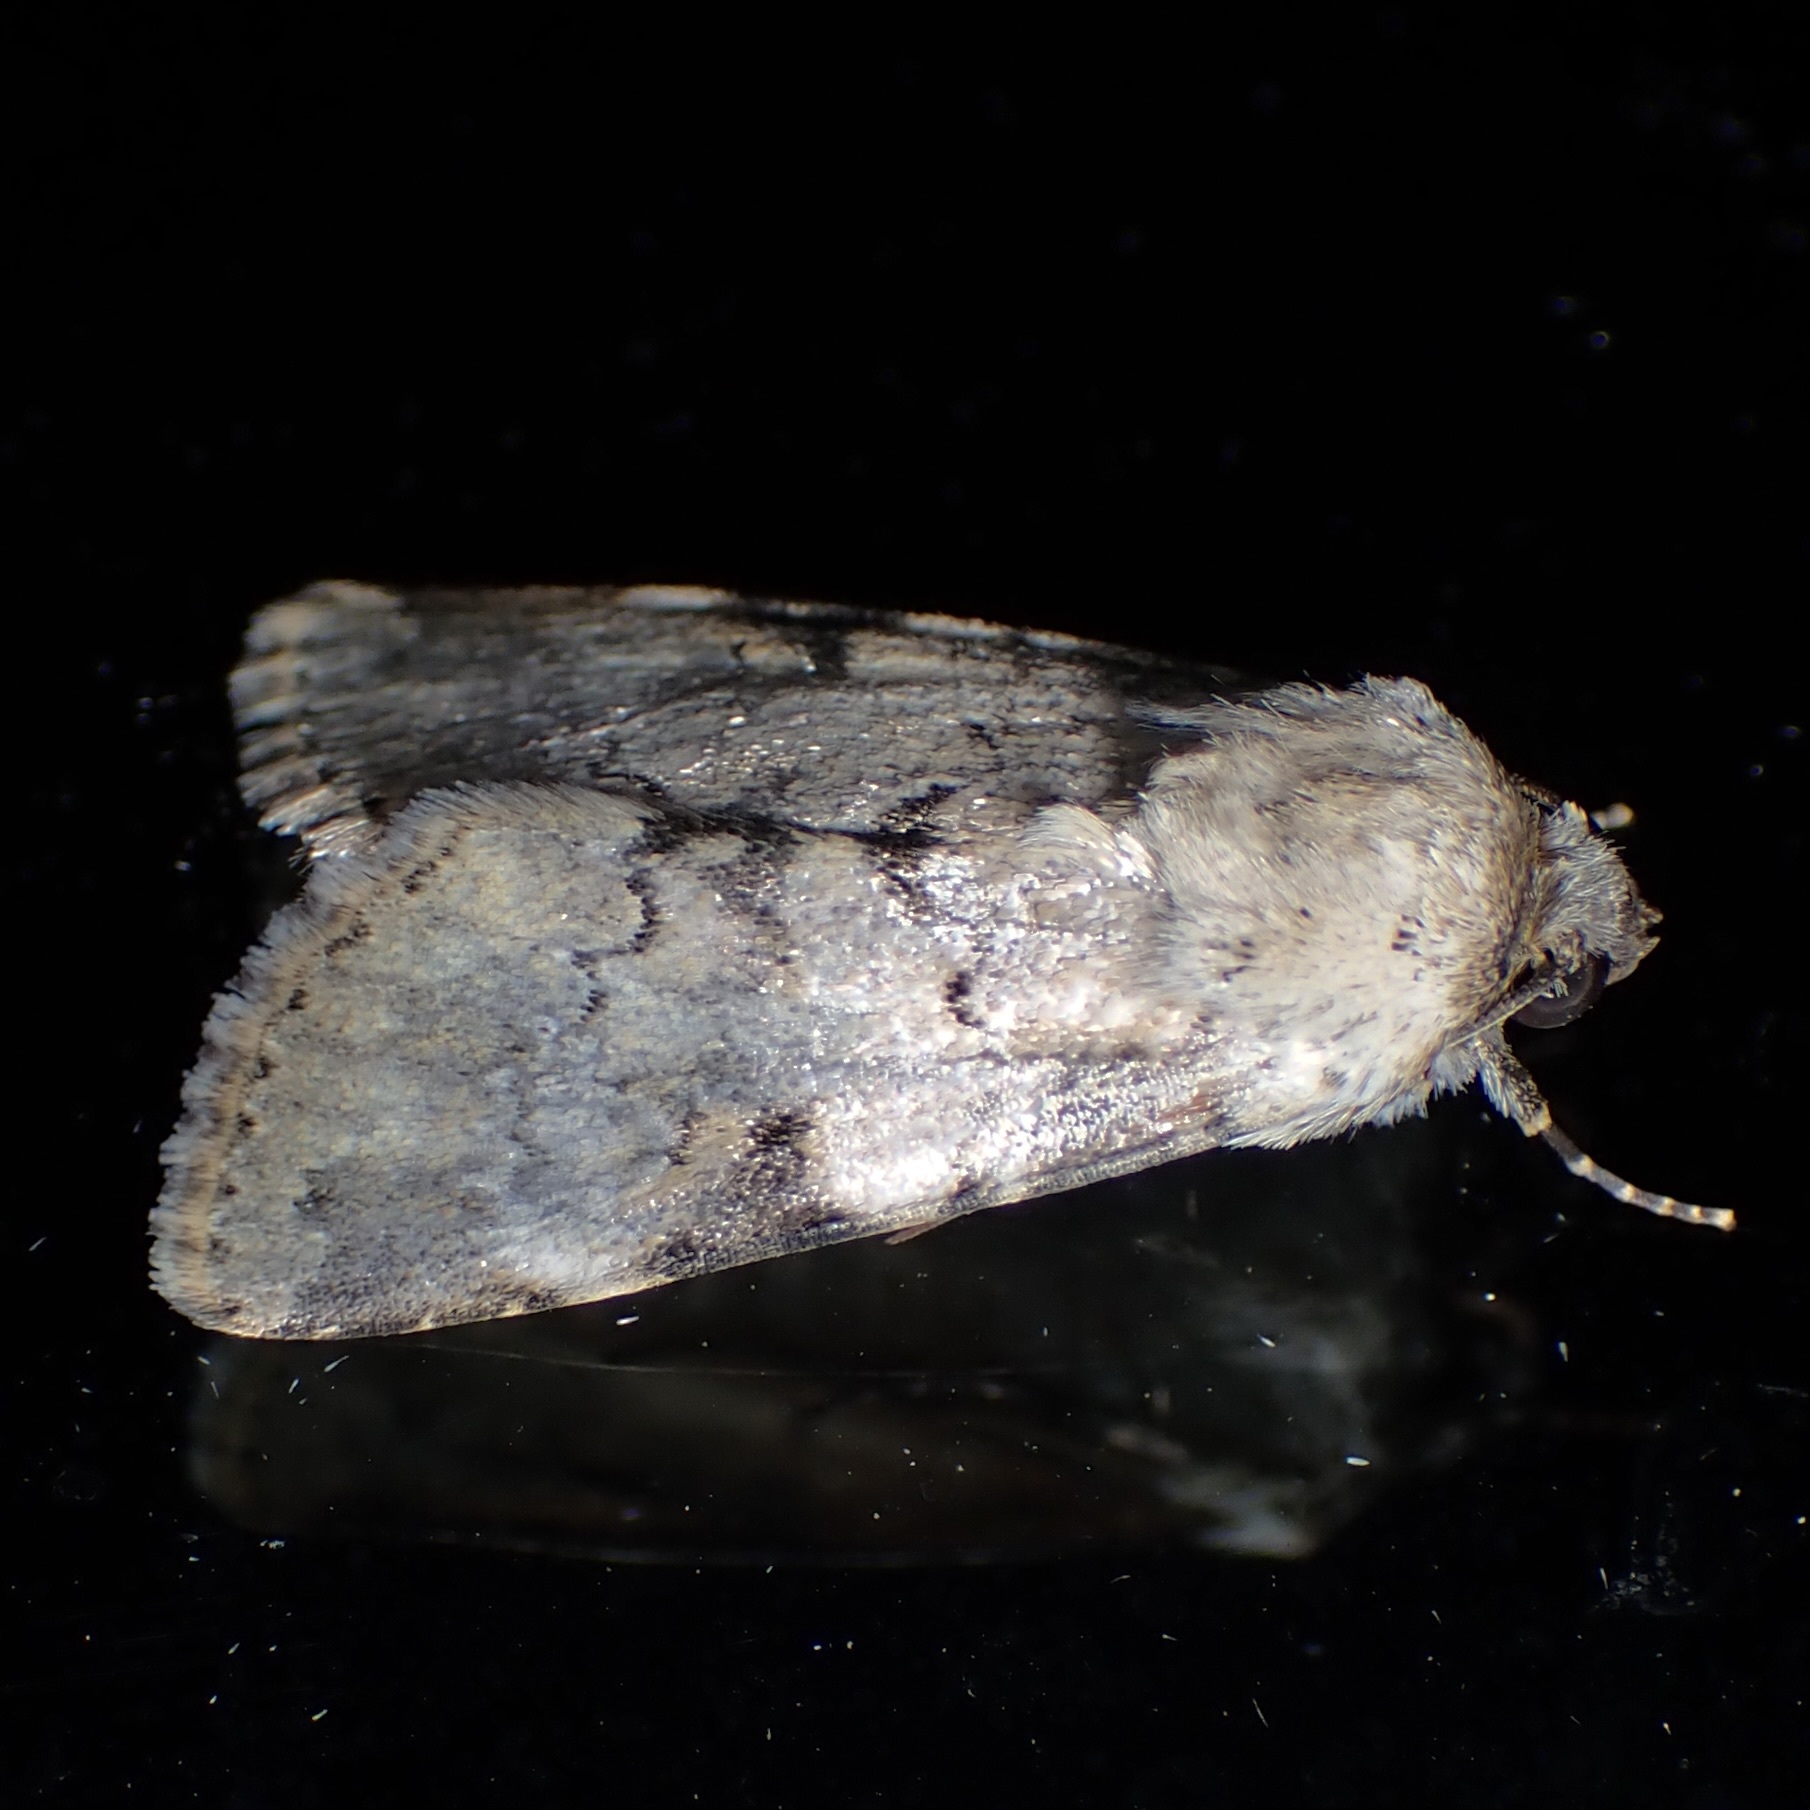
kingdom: Animalia
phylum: Arthropoda
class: Insecta
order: Lepidoptera
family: Noctuidae
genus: Agrotisia
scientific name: Agrotisia evelinae
